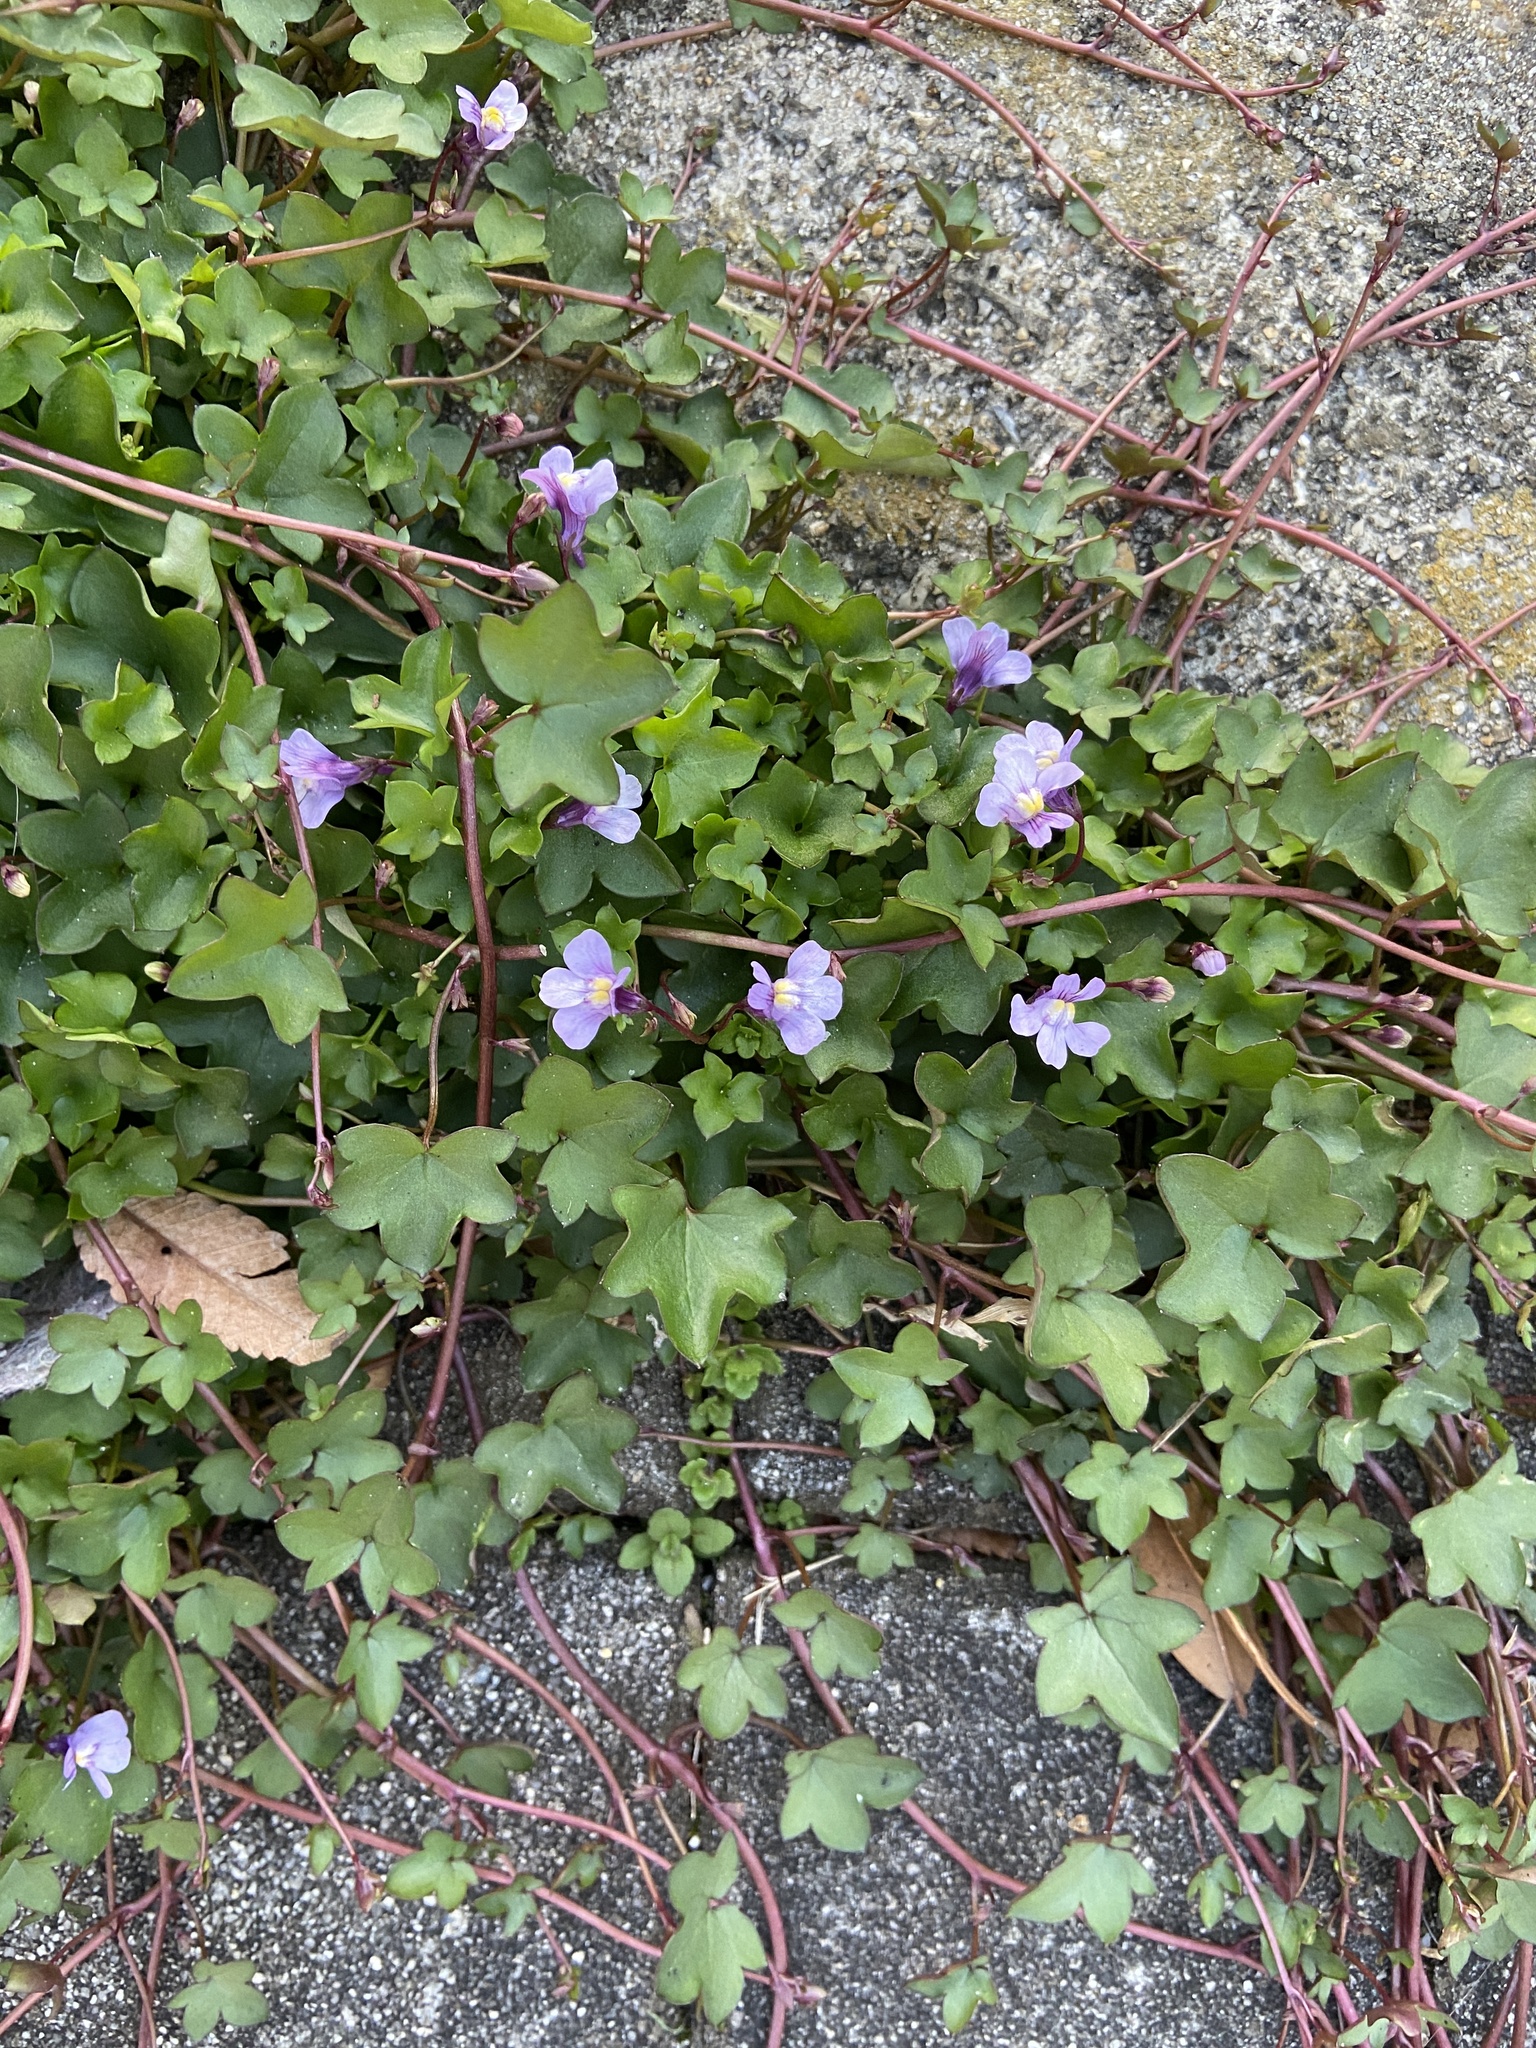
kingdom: Plantae
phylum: Tracheophyta
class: Magnoliopsida
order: Lamiales
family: Plantaginaceae
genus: Cymbalaria
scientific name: Cymbalaria muralis
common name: Ivy-leaved toadflax
